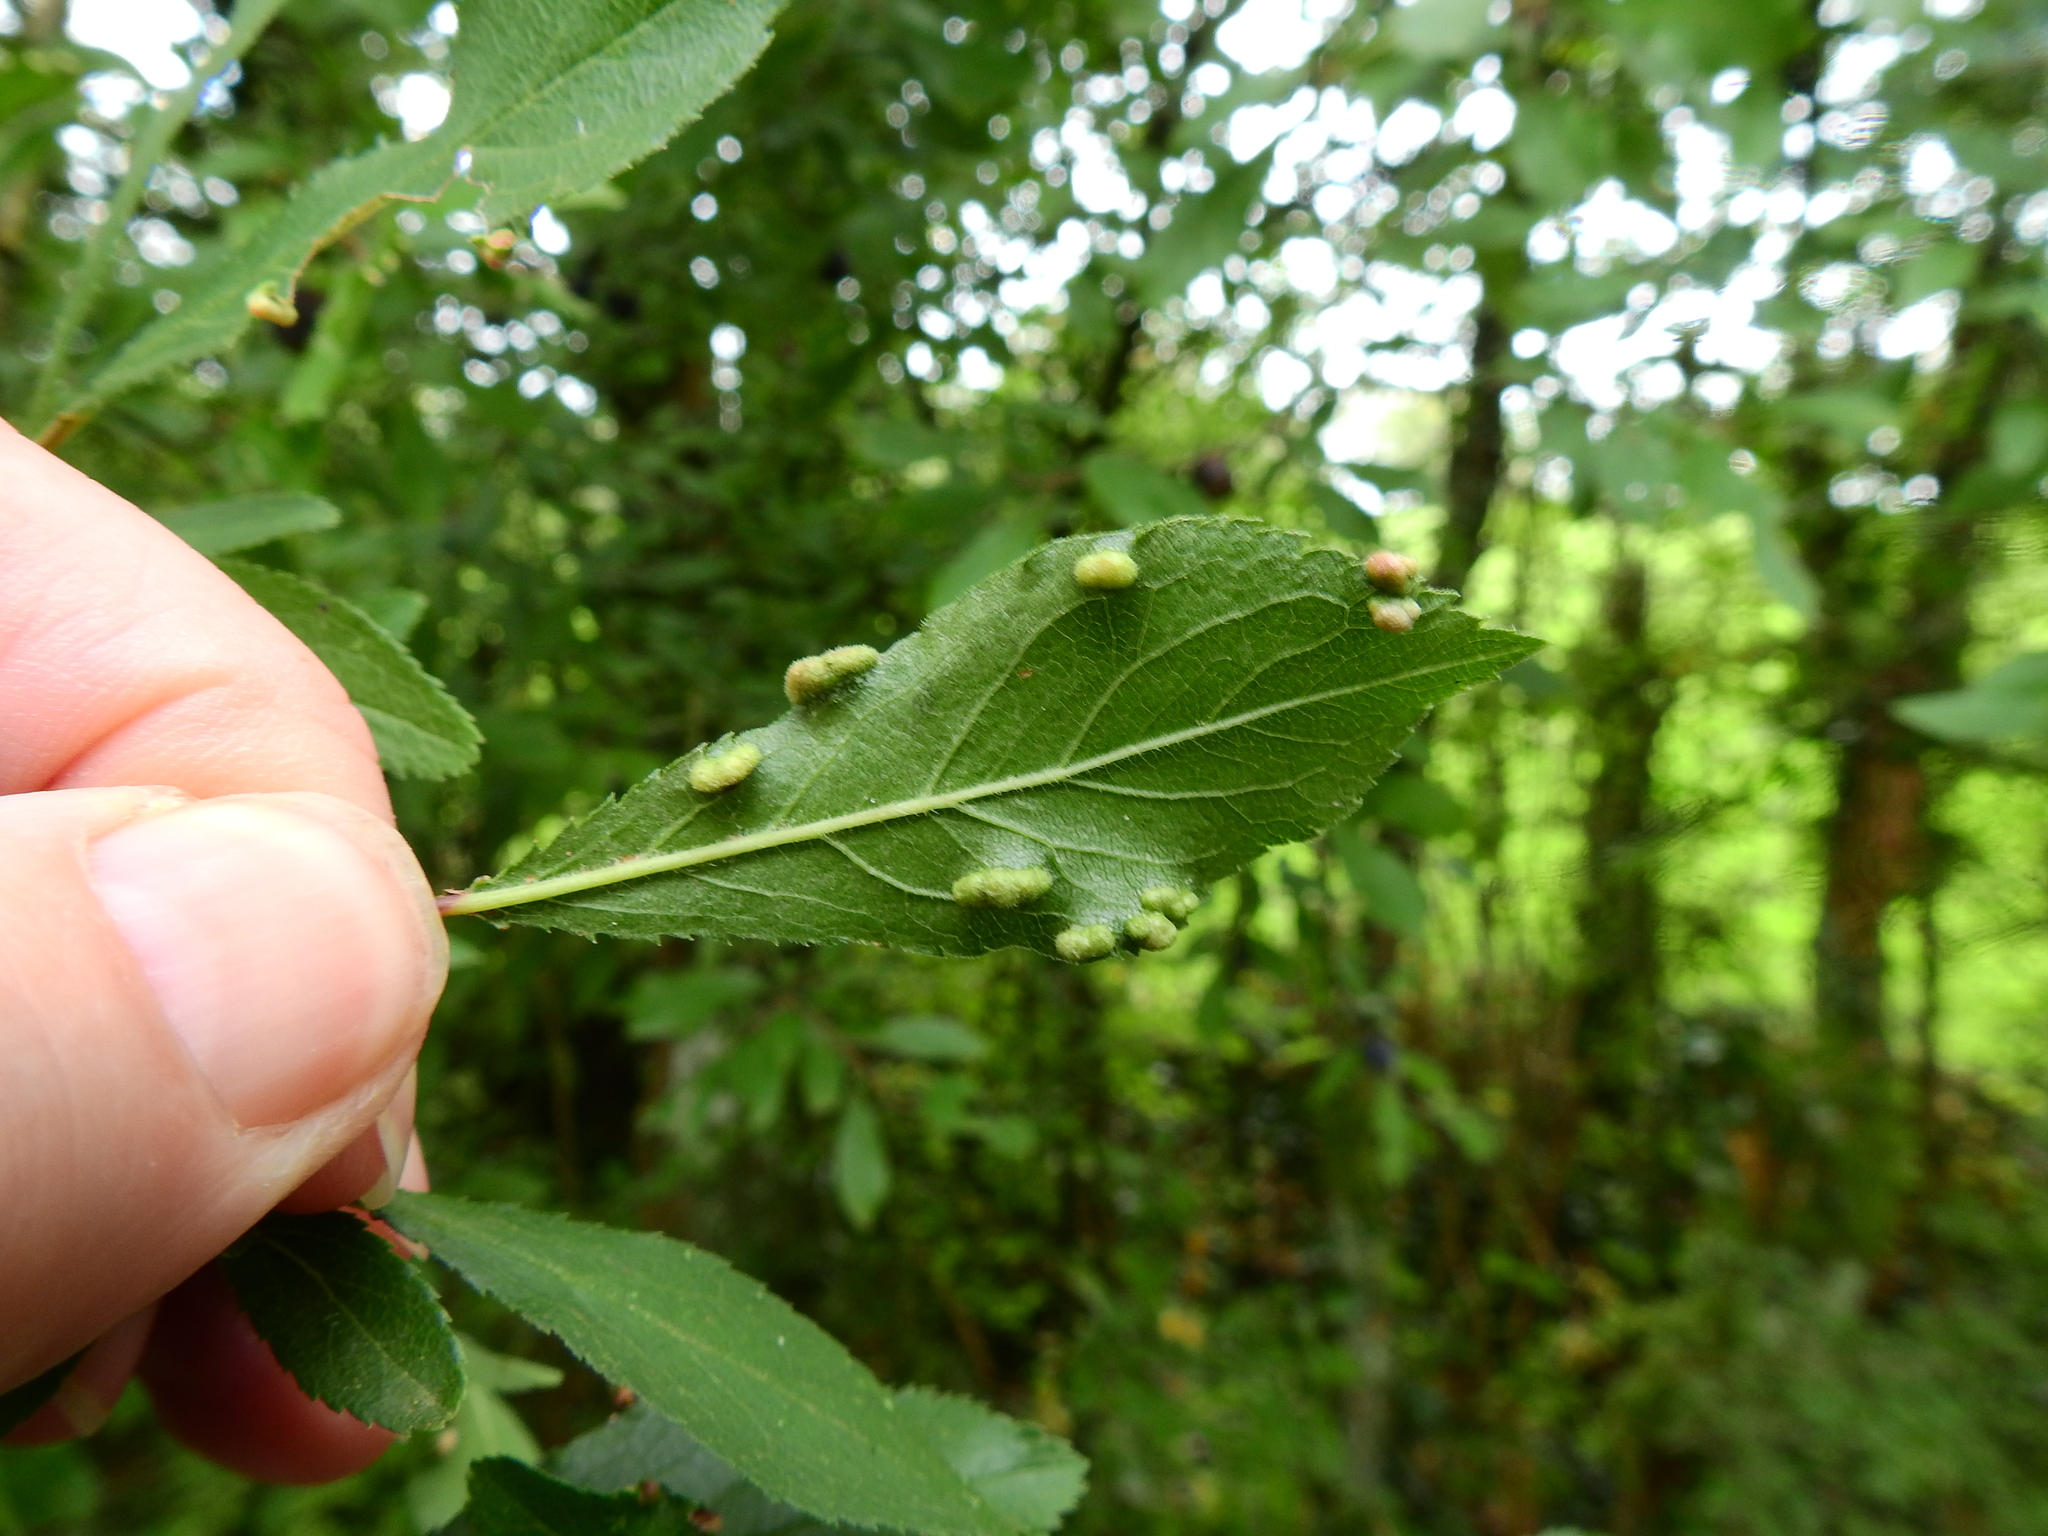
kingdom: Animalia
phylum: Arthropoda
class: Arachnida
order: Trombidiformes
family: Eriophyidae
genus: Eriophyes
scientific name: Eriophyes similis
